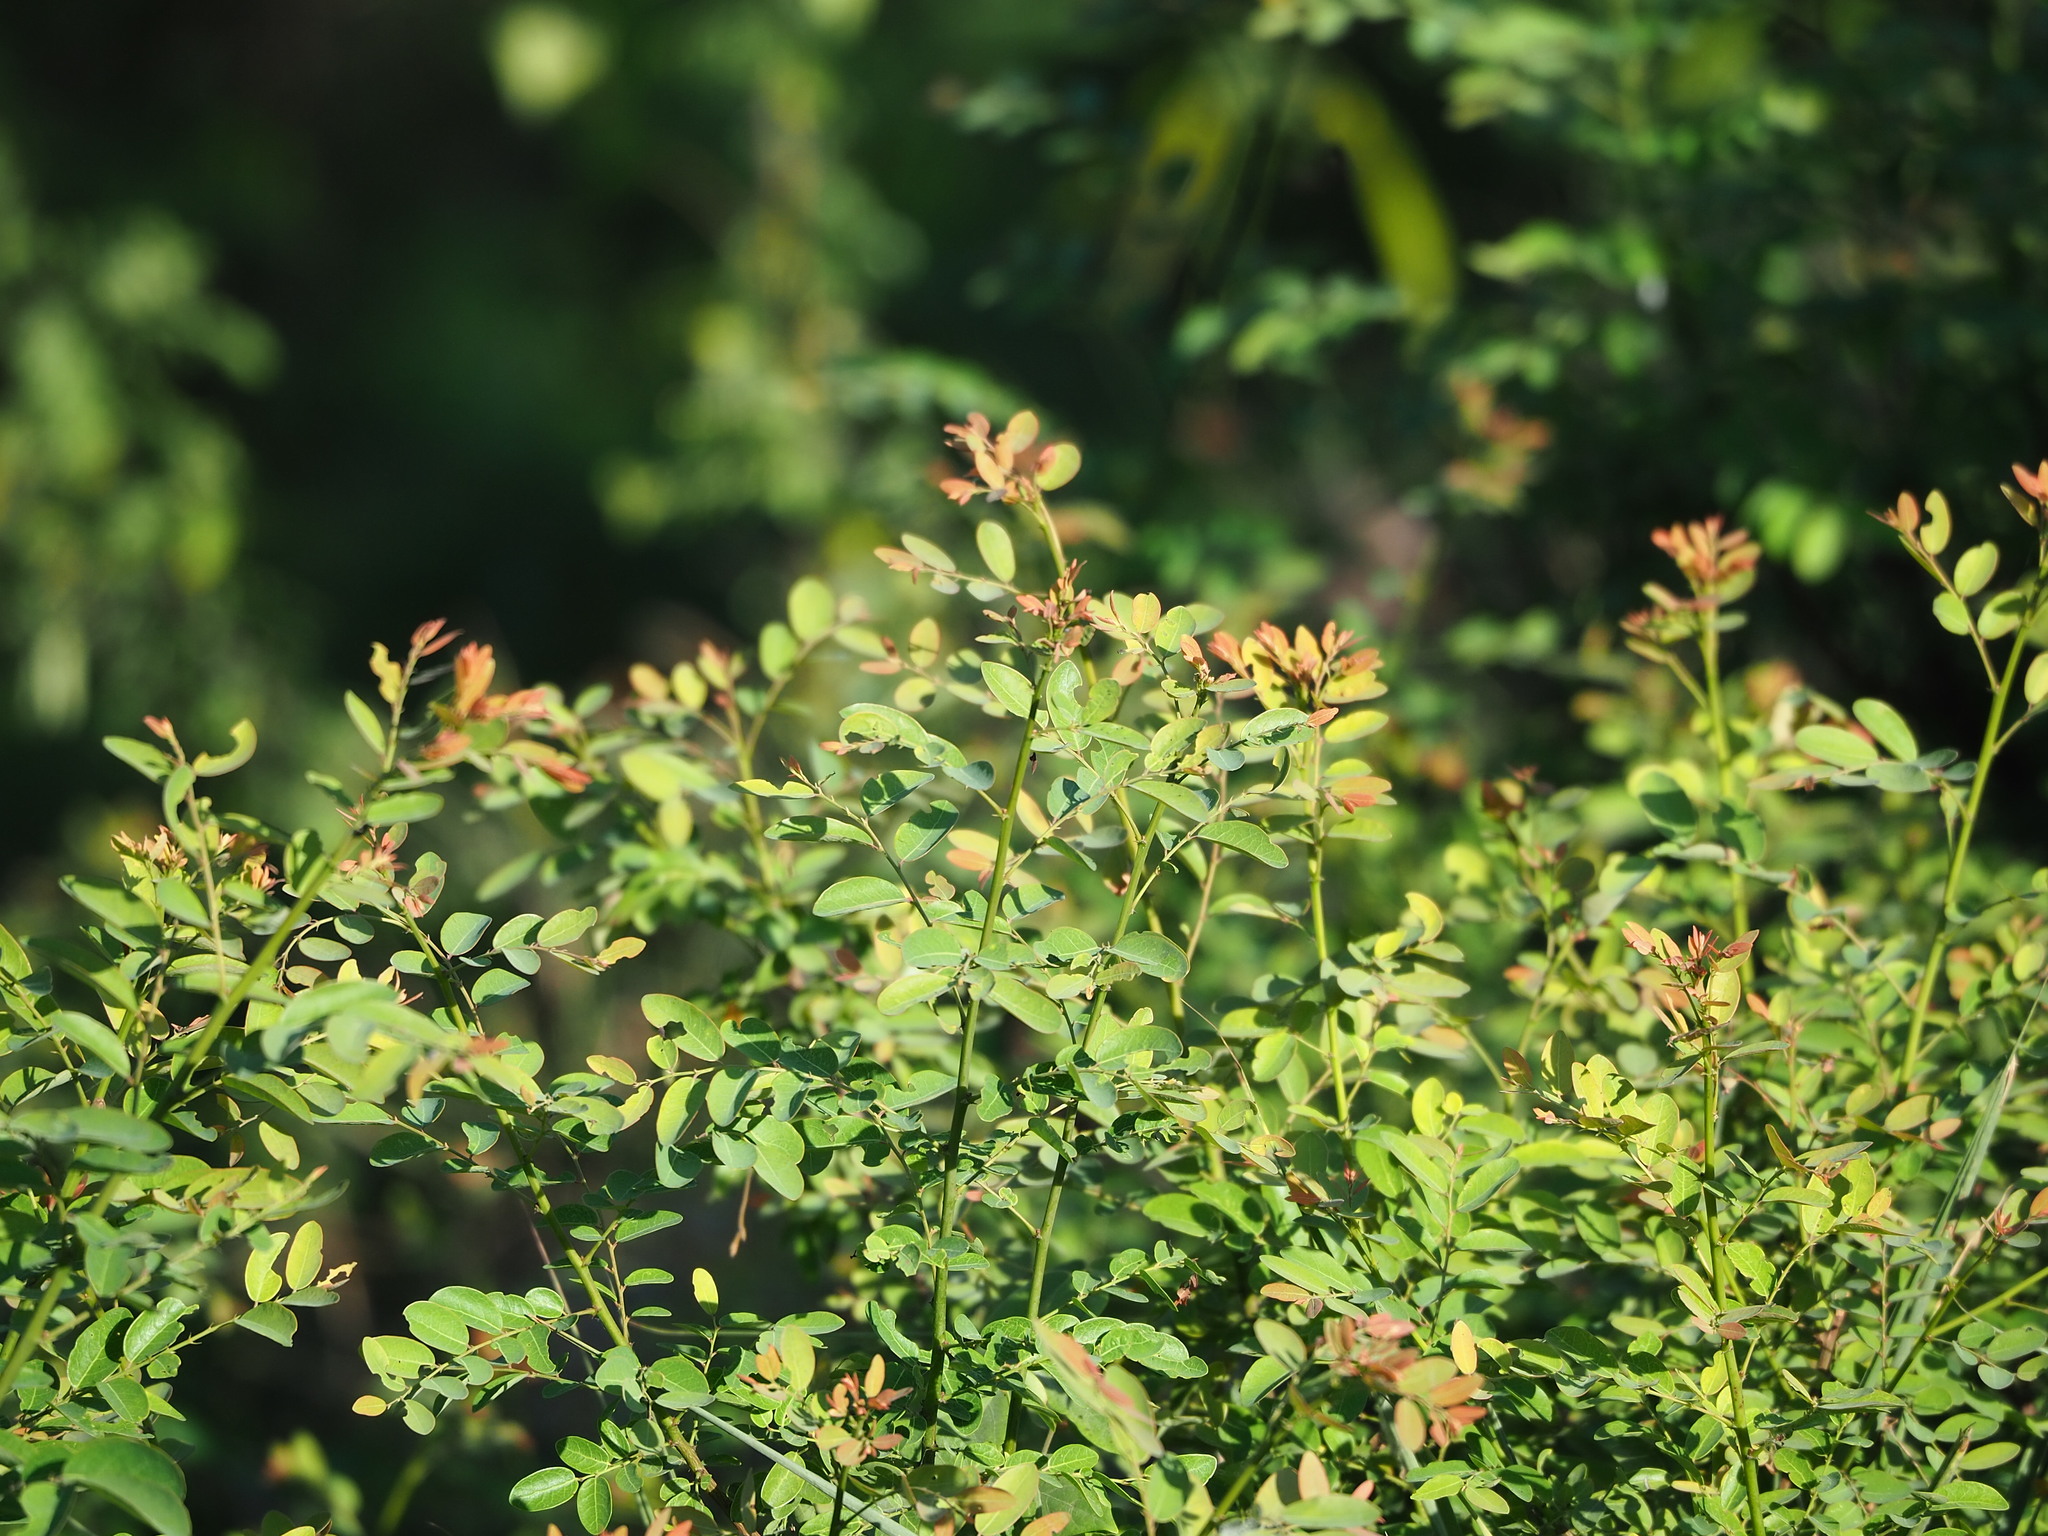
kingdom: Plantae
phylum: Tracheophyta
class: Magnoliopsida
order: Malpighiales
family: Phyllanthaceae
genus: Phyllanthus
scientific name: Phyllanthus reticulatus
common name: Potato bush
